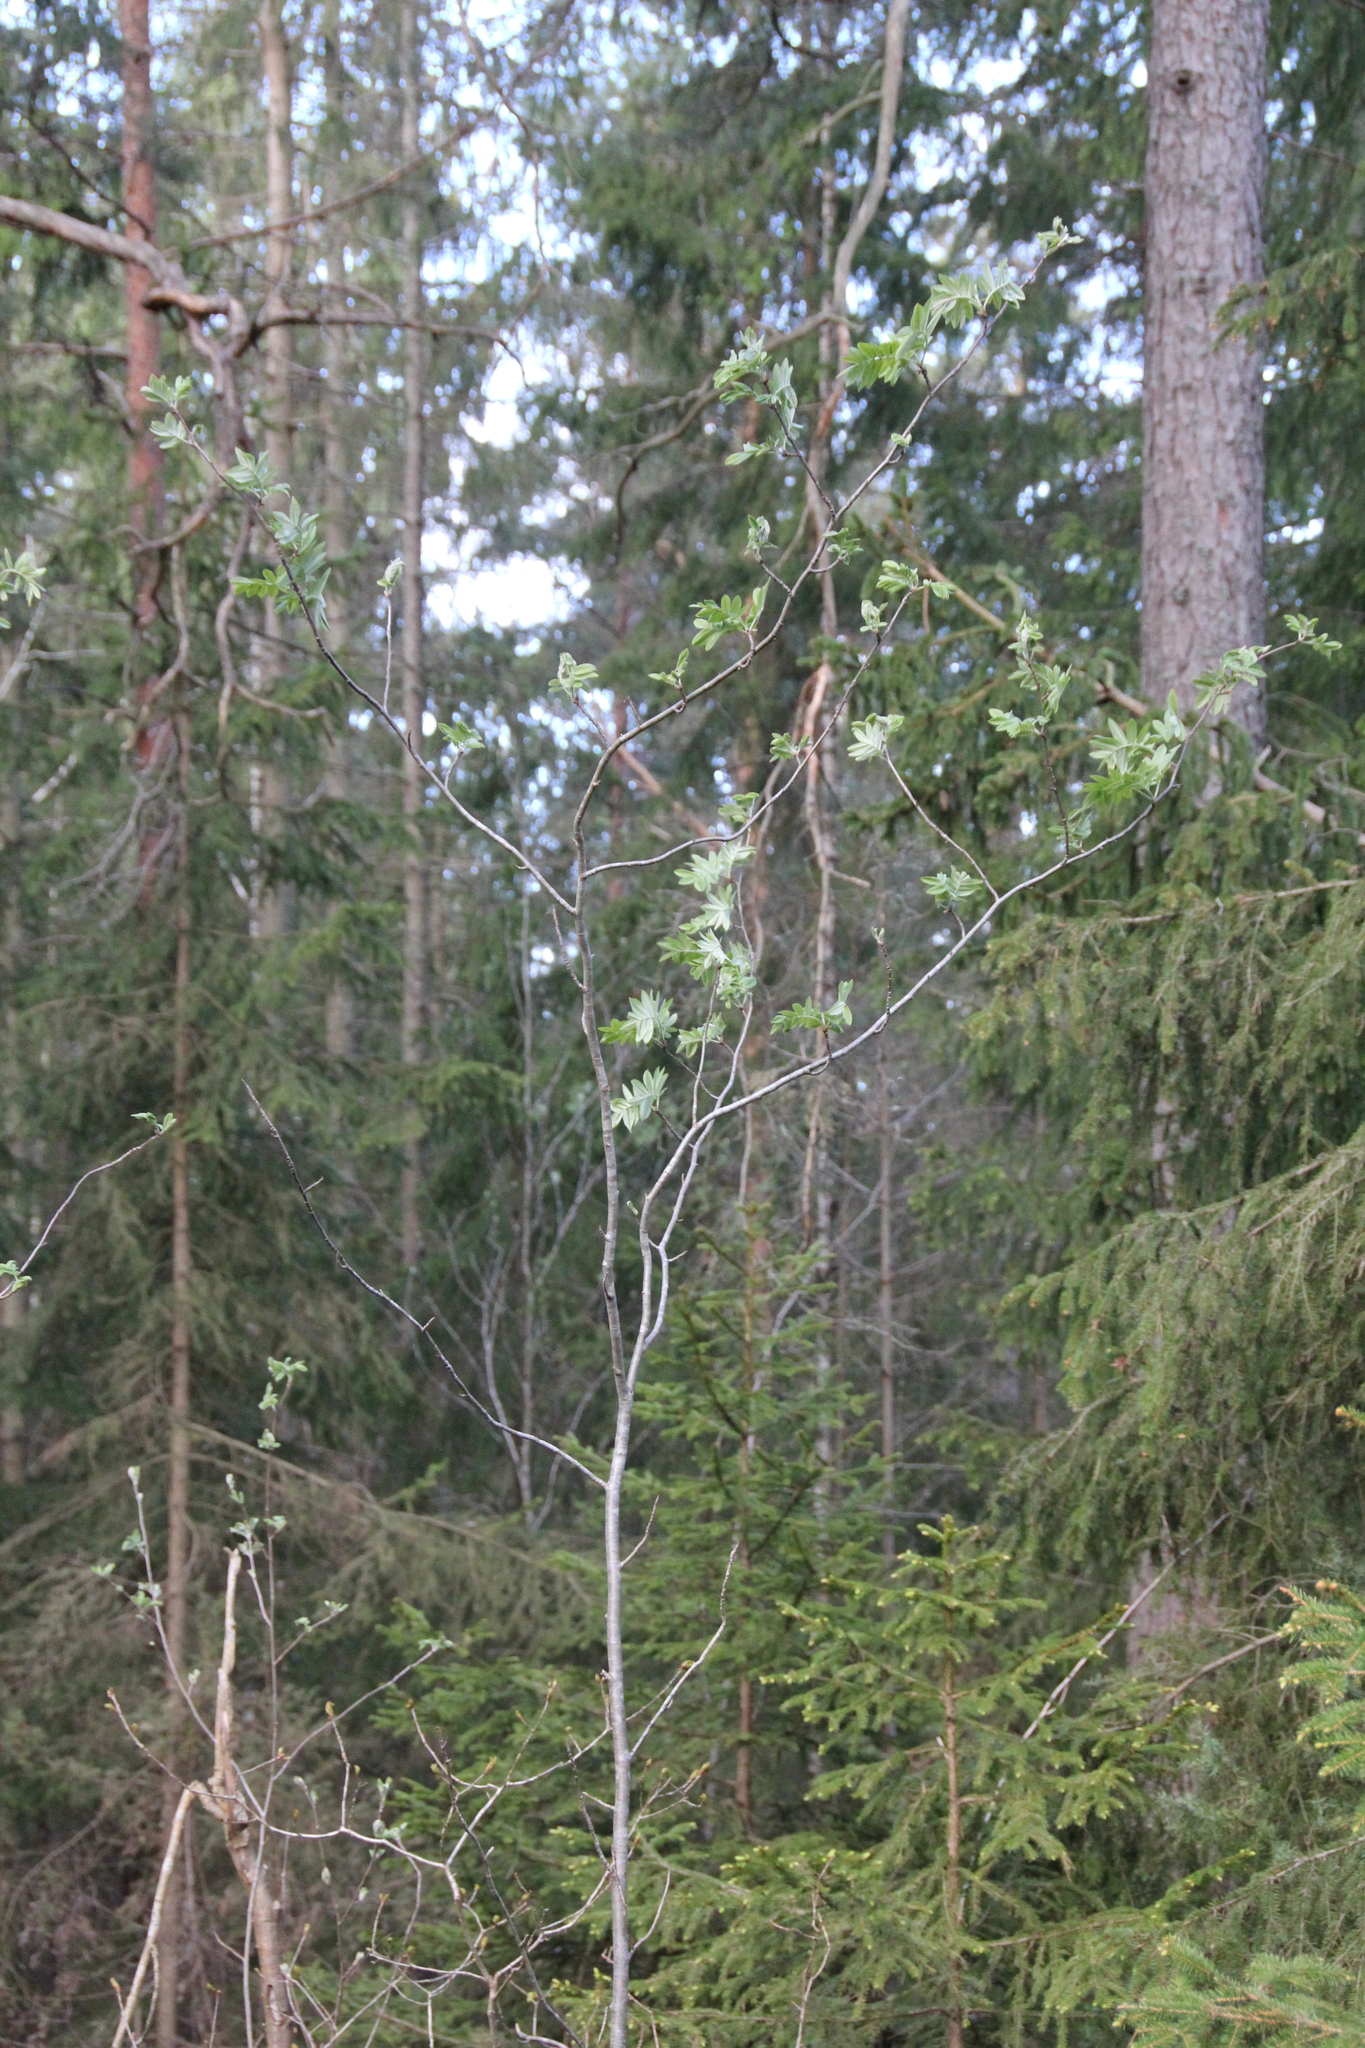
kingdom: Plantae
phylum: Tracheophyta
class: Magnoliopsida
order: Rosales
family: Rosaceae
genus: Sorbus
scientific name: Sorbus aucuparia
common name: Rowan
